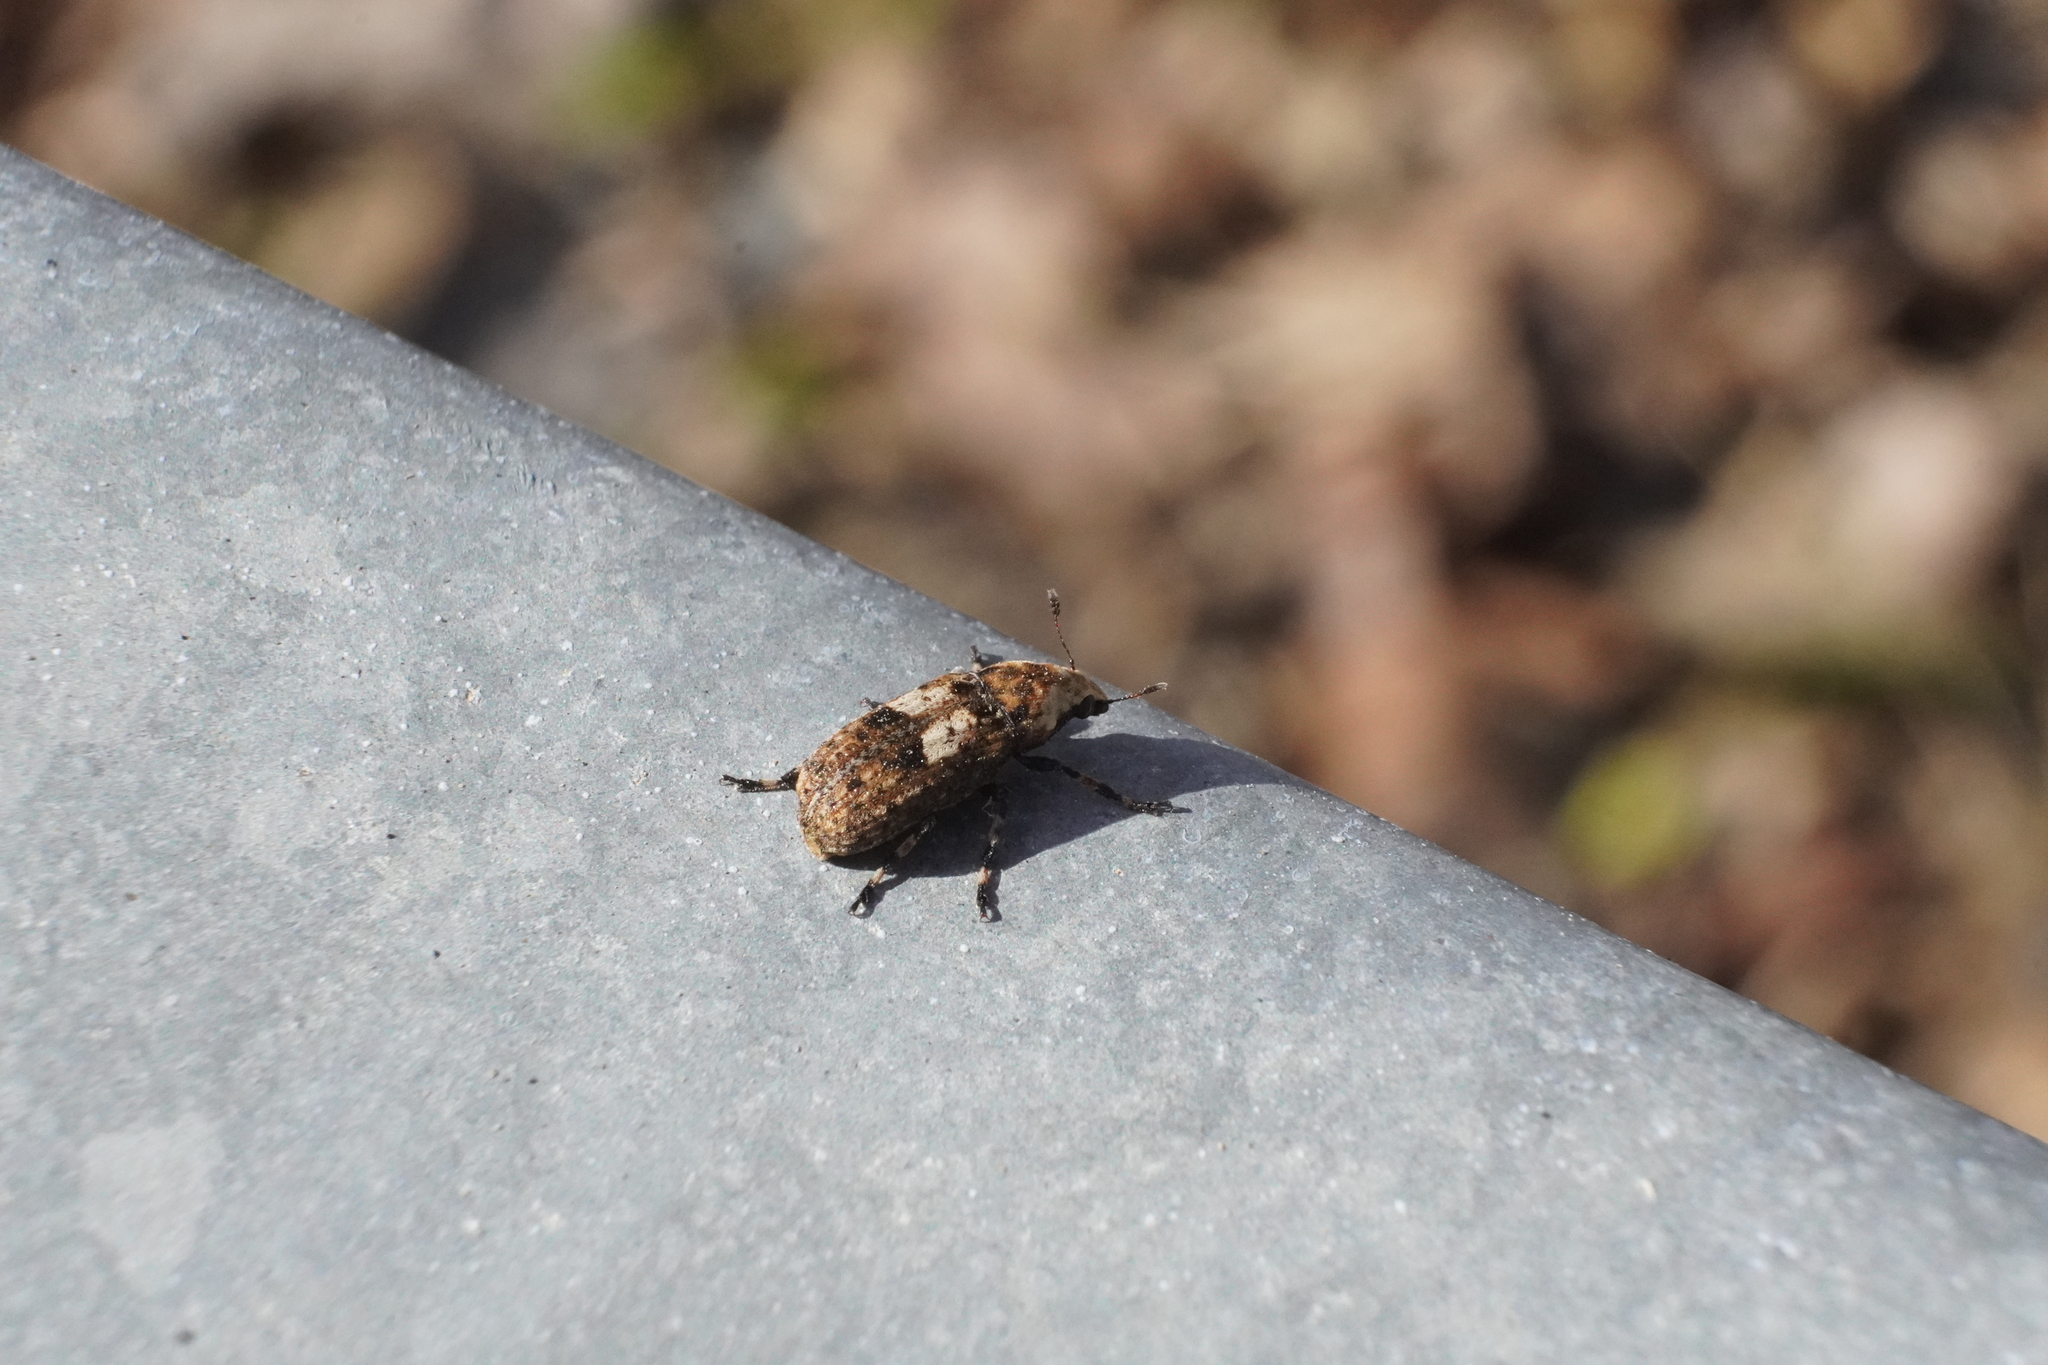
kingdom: Animalia
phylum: Arthropoda
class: Insecta
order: Coleoptera
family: Anthribidae
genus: Euparius
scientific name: Euparius marmoreus
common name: Marbled fungus weevil
